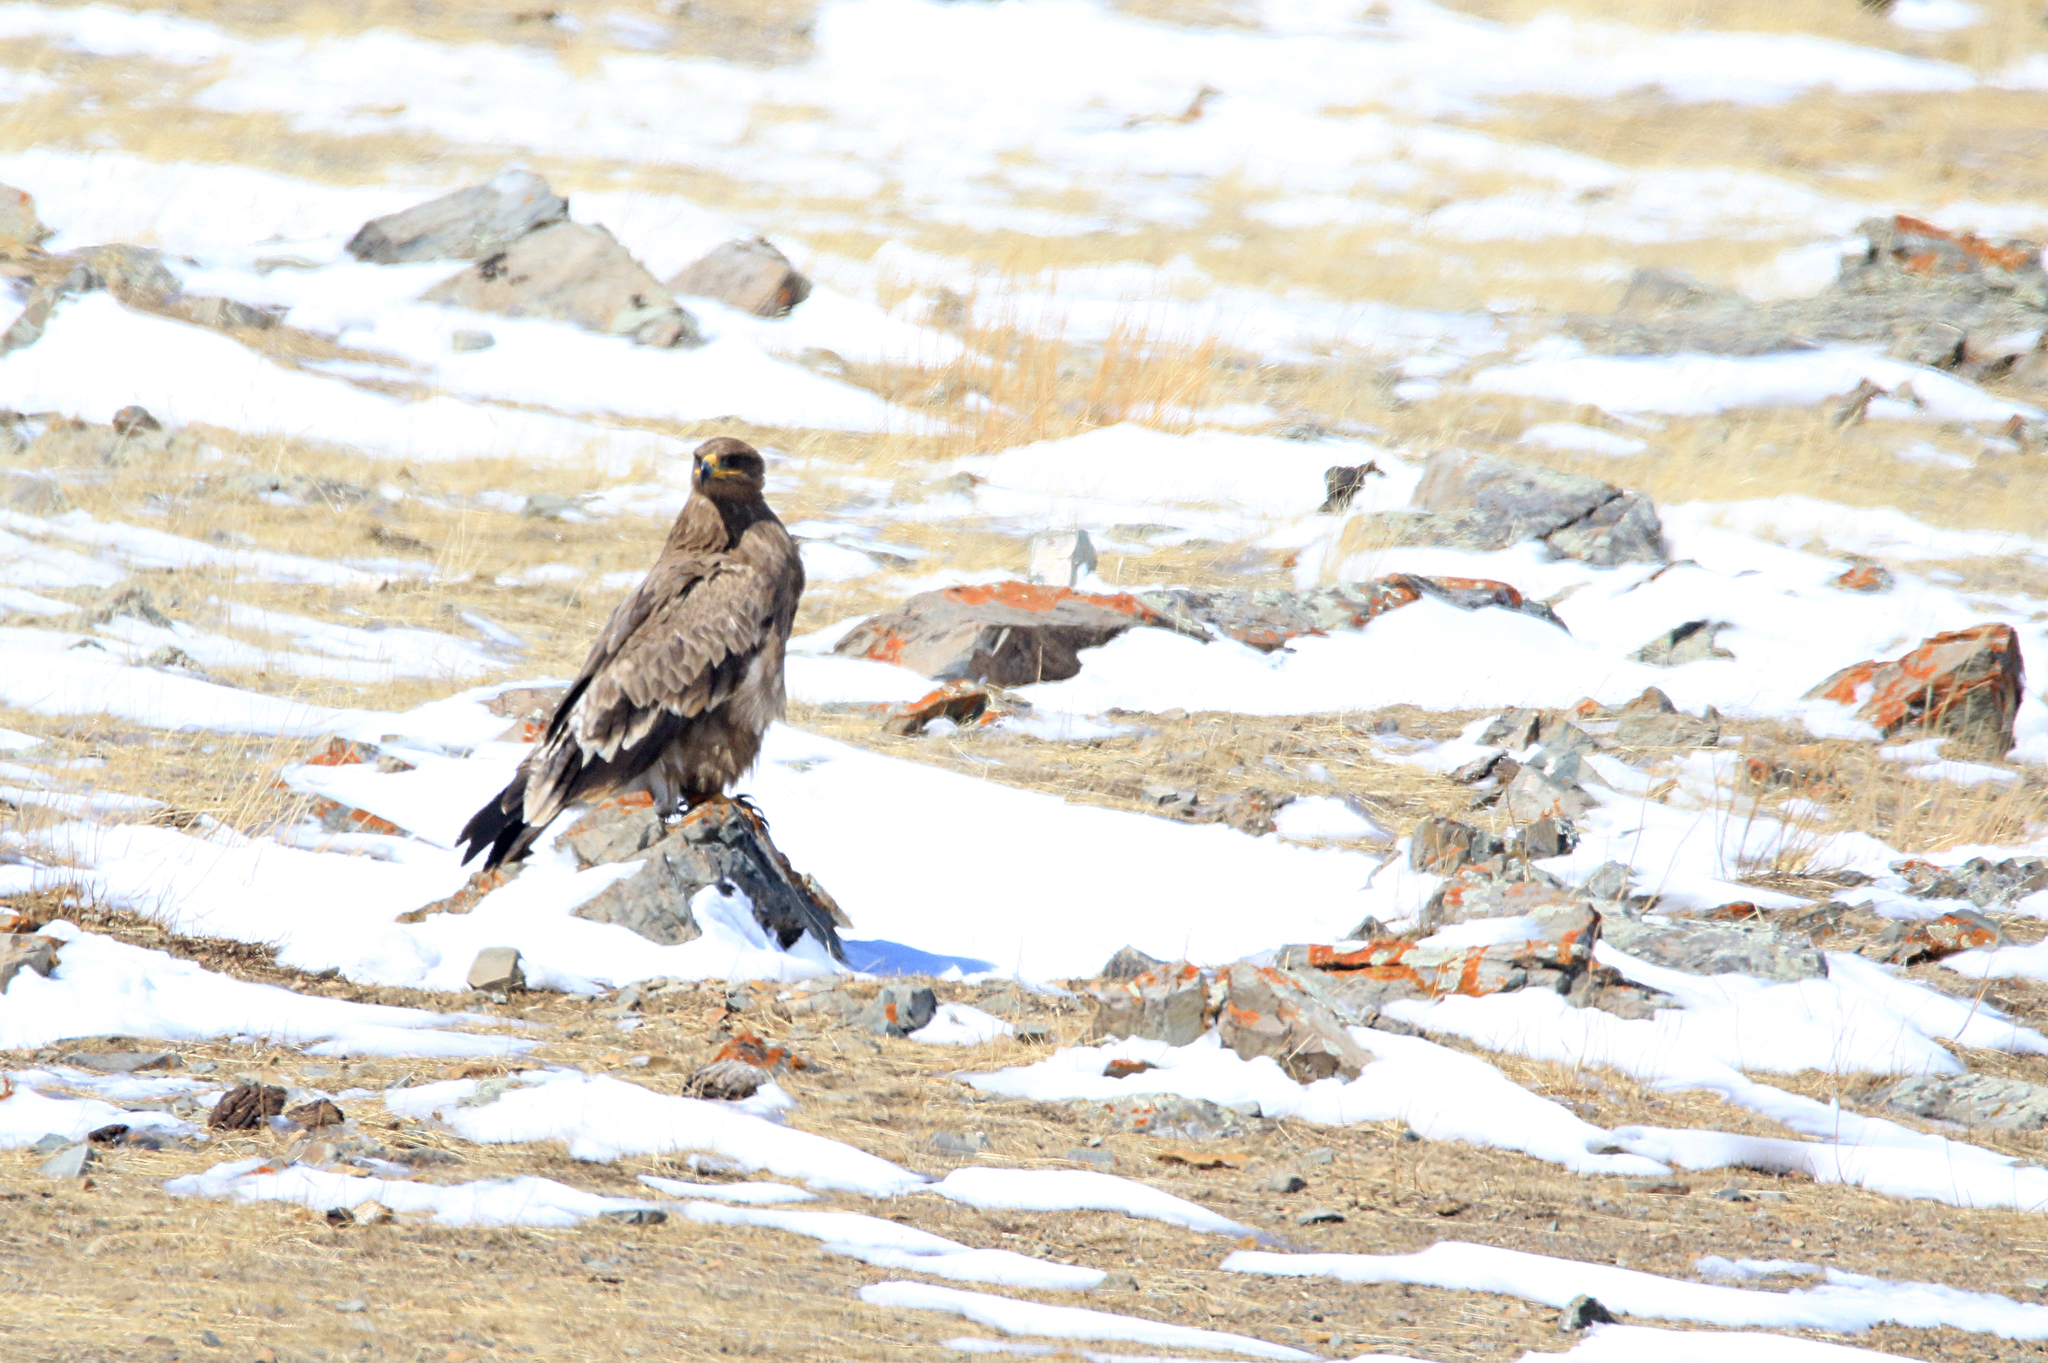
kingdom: Animalia
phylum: Chordata
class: Aves
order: Accipitriformes
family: Accipitridae
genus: Aquila
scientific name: Aquila nipalensis
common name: Steppe eagle
